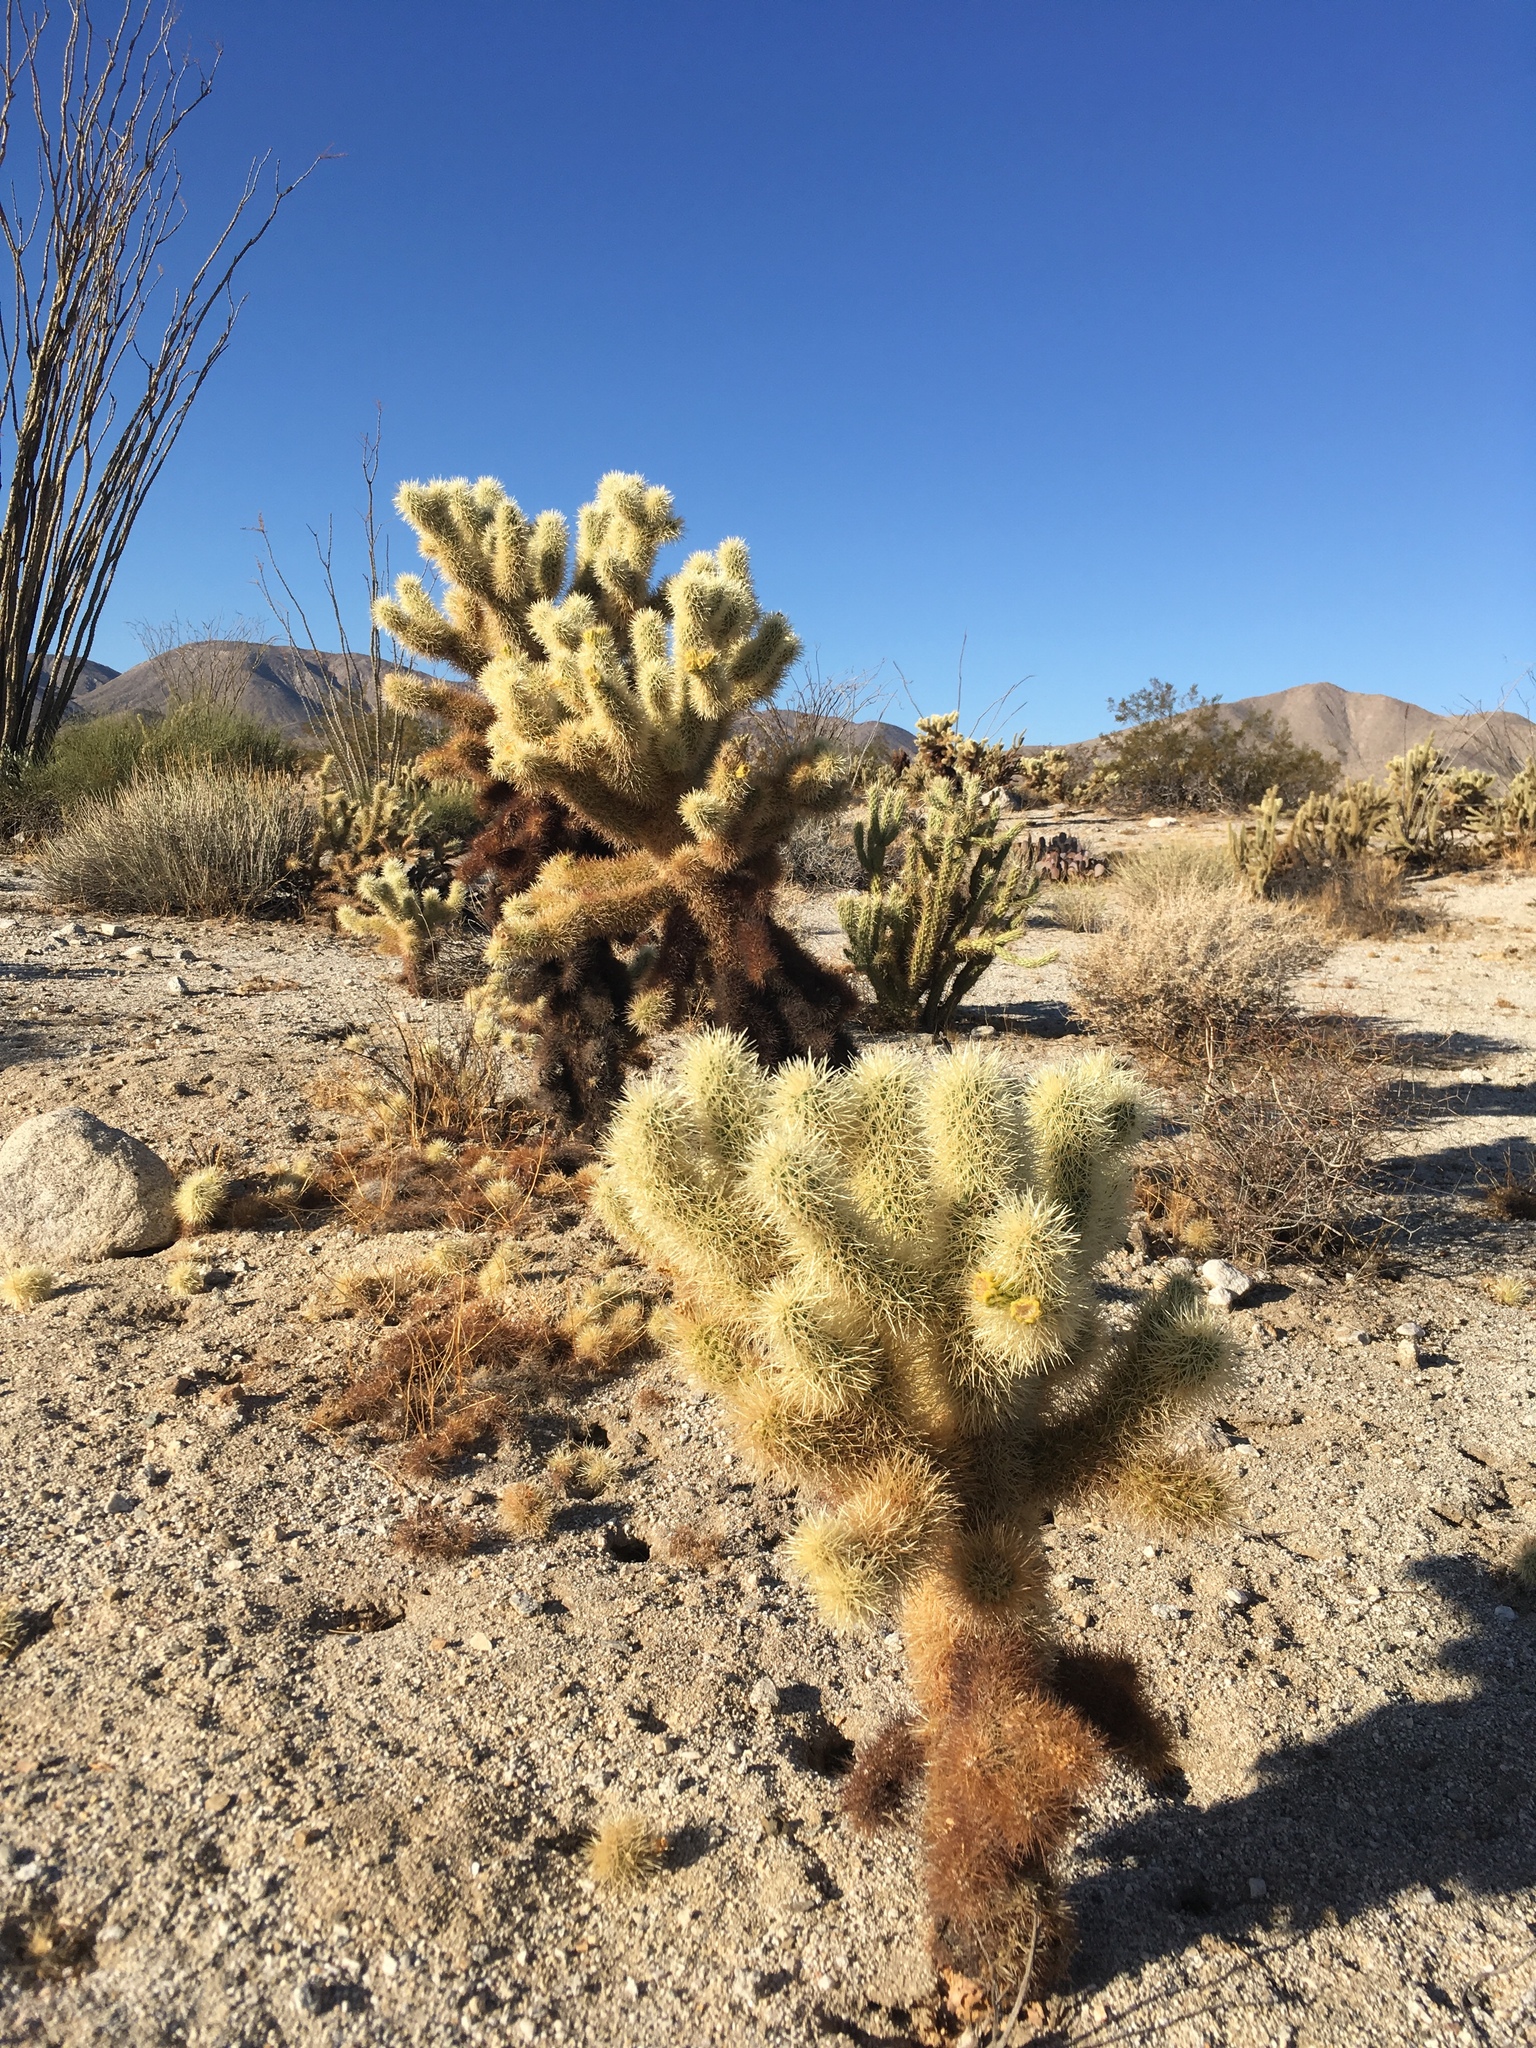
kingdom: Plantae
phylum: Tracheophyta
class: Magnoliopsida
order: Caryophyllales
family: Cactaceae
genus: Cylindropuntia
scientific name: Cylindropuntia fosbergii
